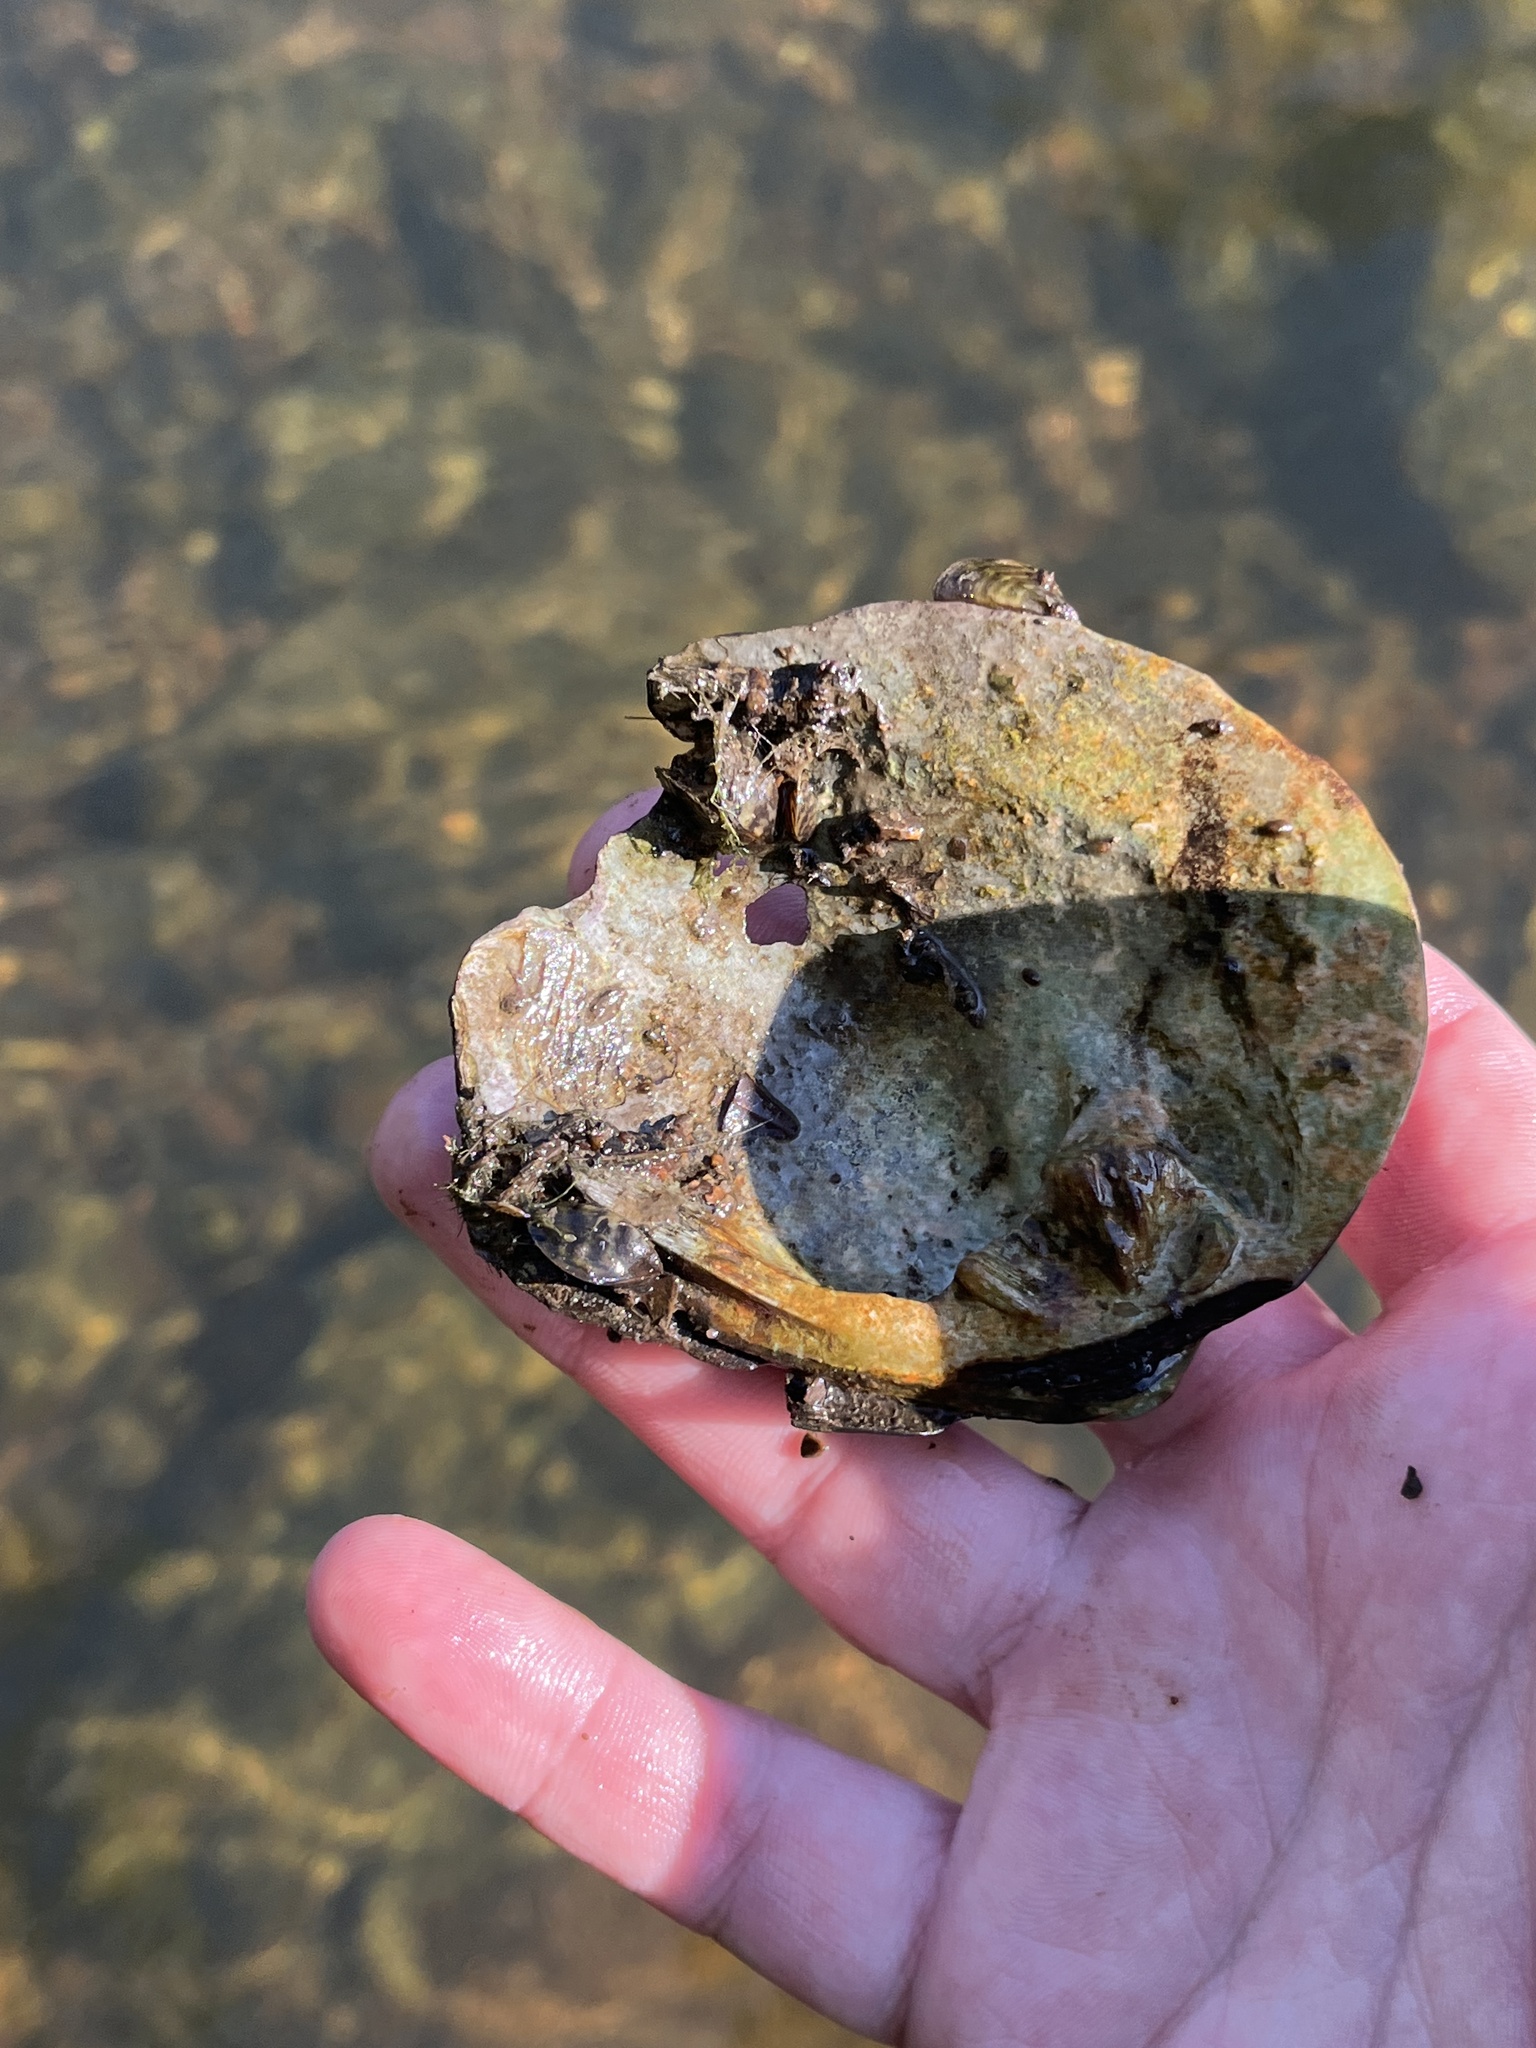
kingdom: Animalia
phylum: Mollusca
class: Bivalvia
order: Unionida
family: Unionidae
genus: Cyclonaias
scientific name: Cyclonaias tuberculata
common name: Purple wartyback
